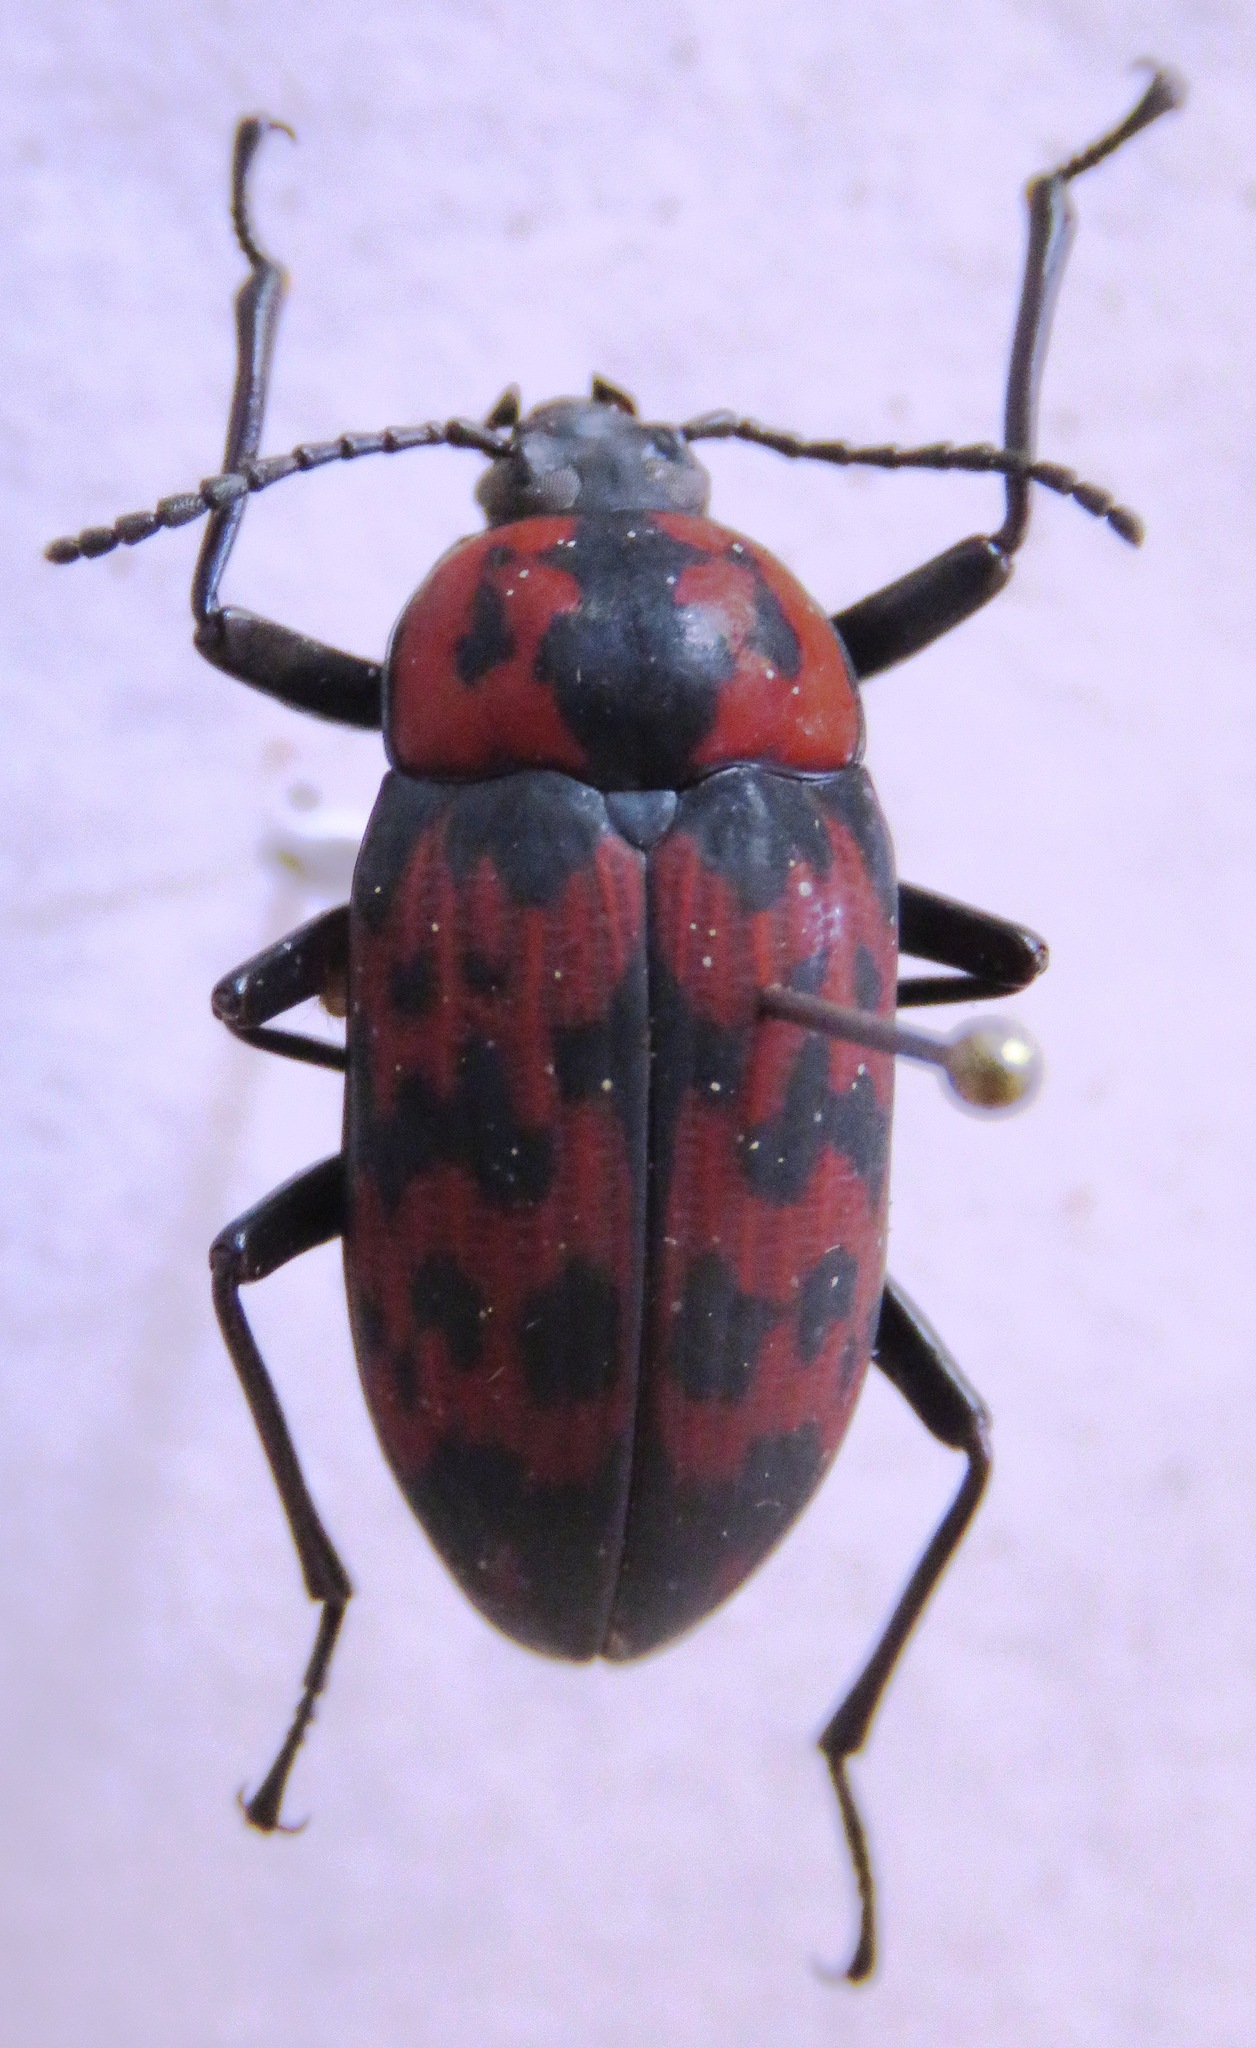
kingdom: Animalia
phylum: Arthropoda
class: Insecta
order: Coleoptera
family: Tenebrionidae
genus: Cymatothes
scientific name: Cymatothes nebulosus
